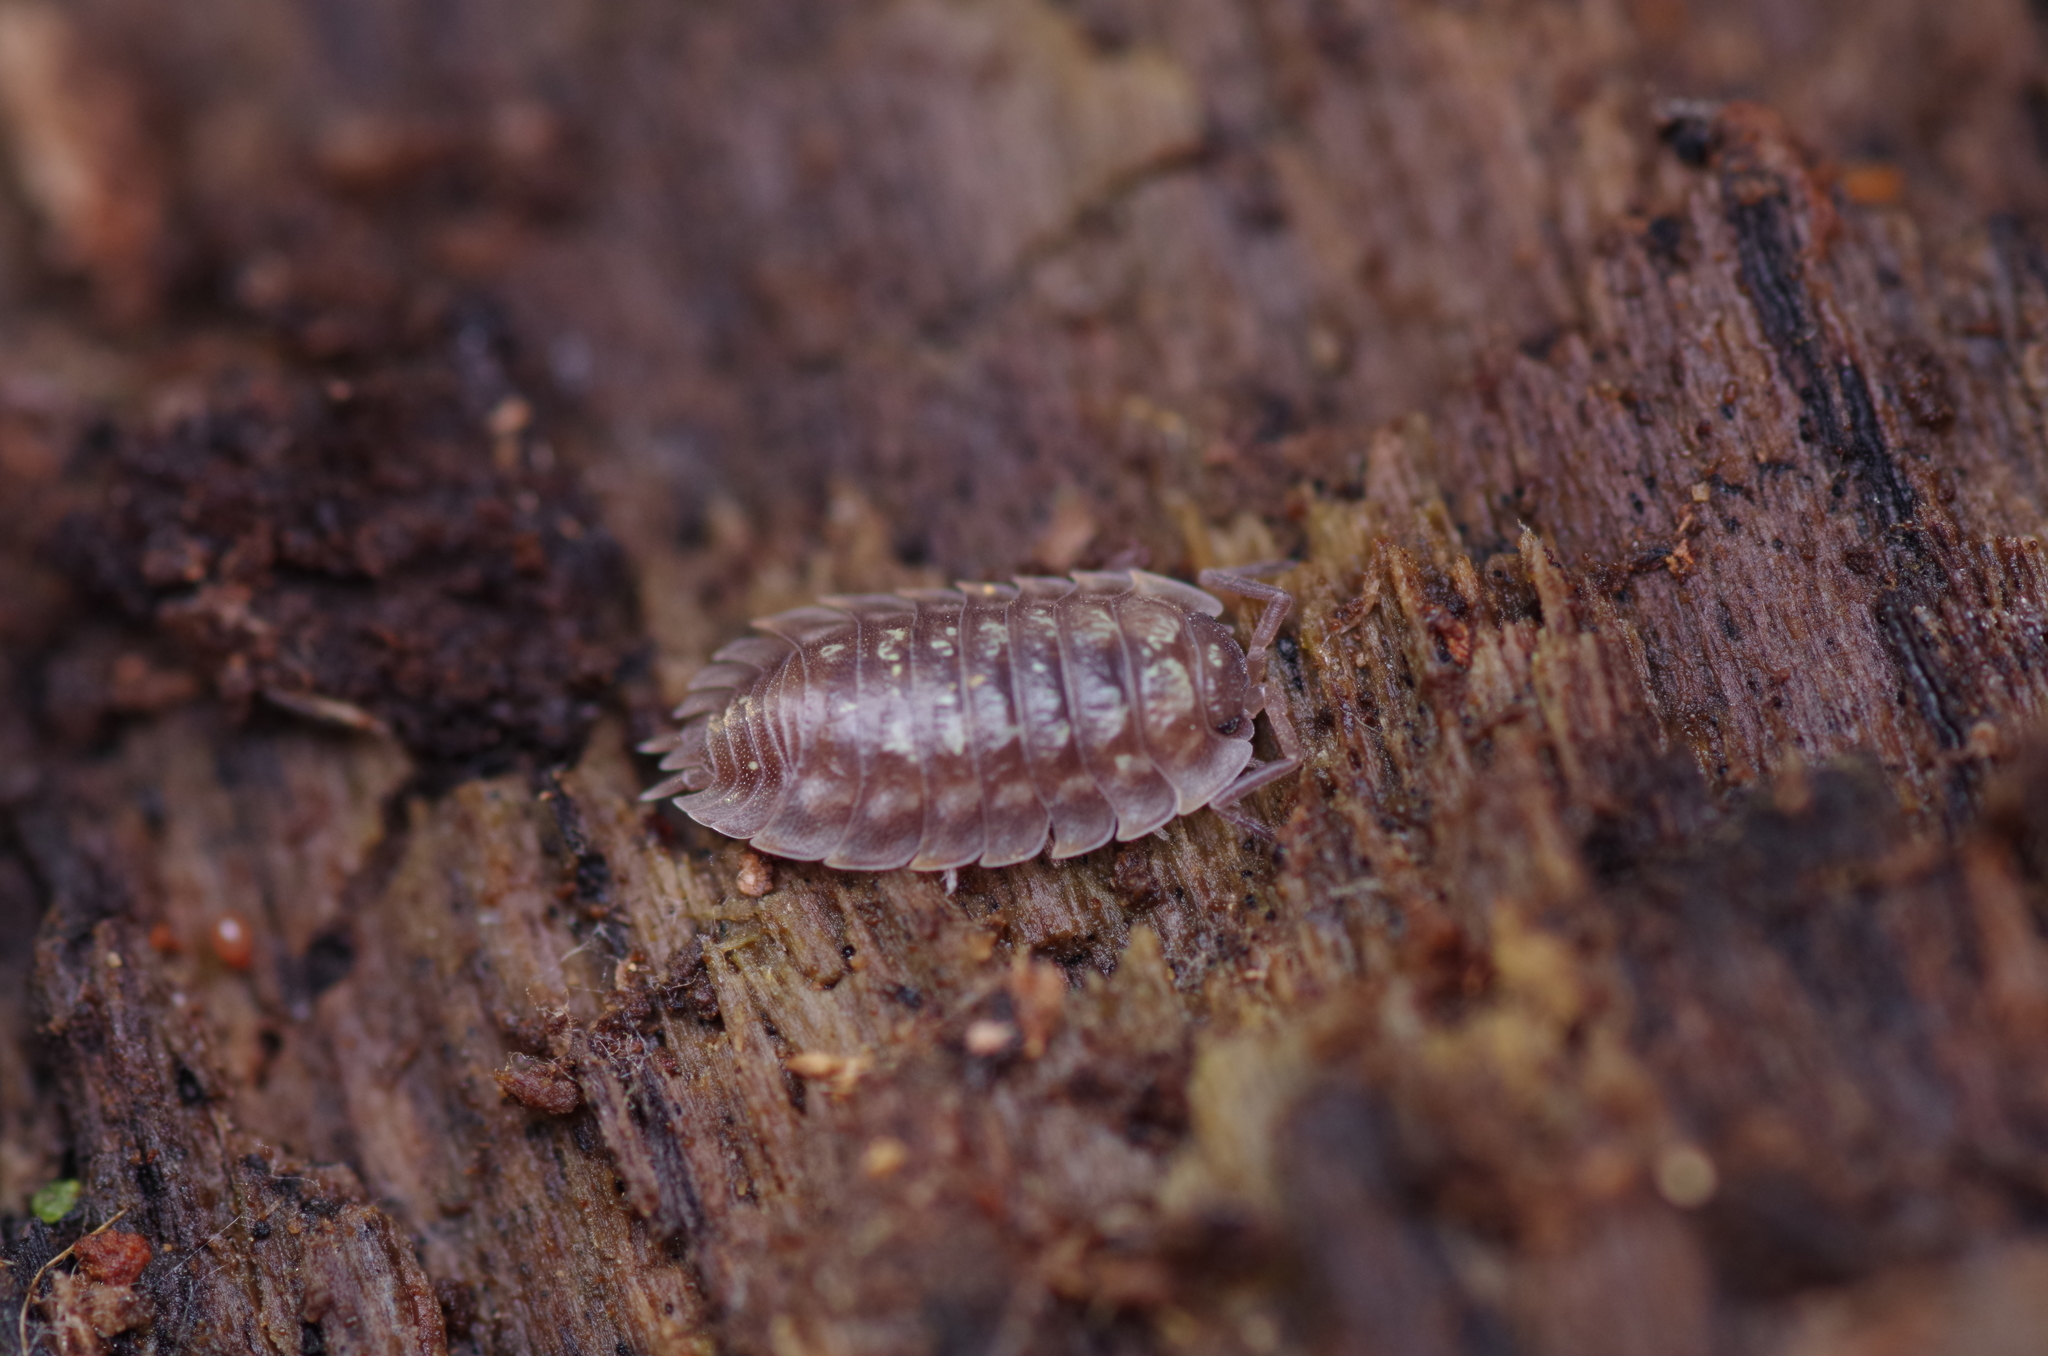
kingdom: Animalia
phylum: Arthropoda
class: Malacostraca
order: Isopoda
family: Oniscidae
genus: Oniscus
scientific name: Oniscus asellus
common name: Common shiny woodlouse
